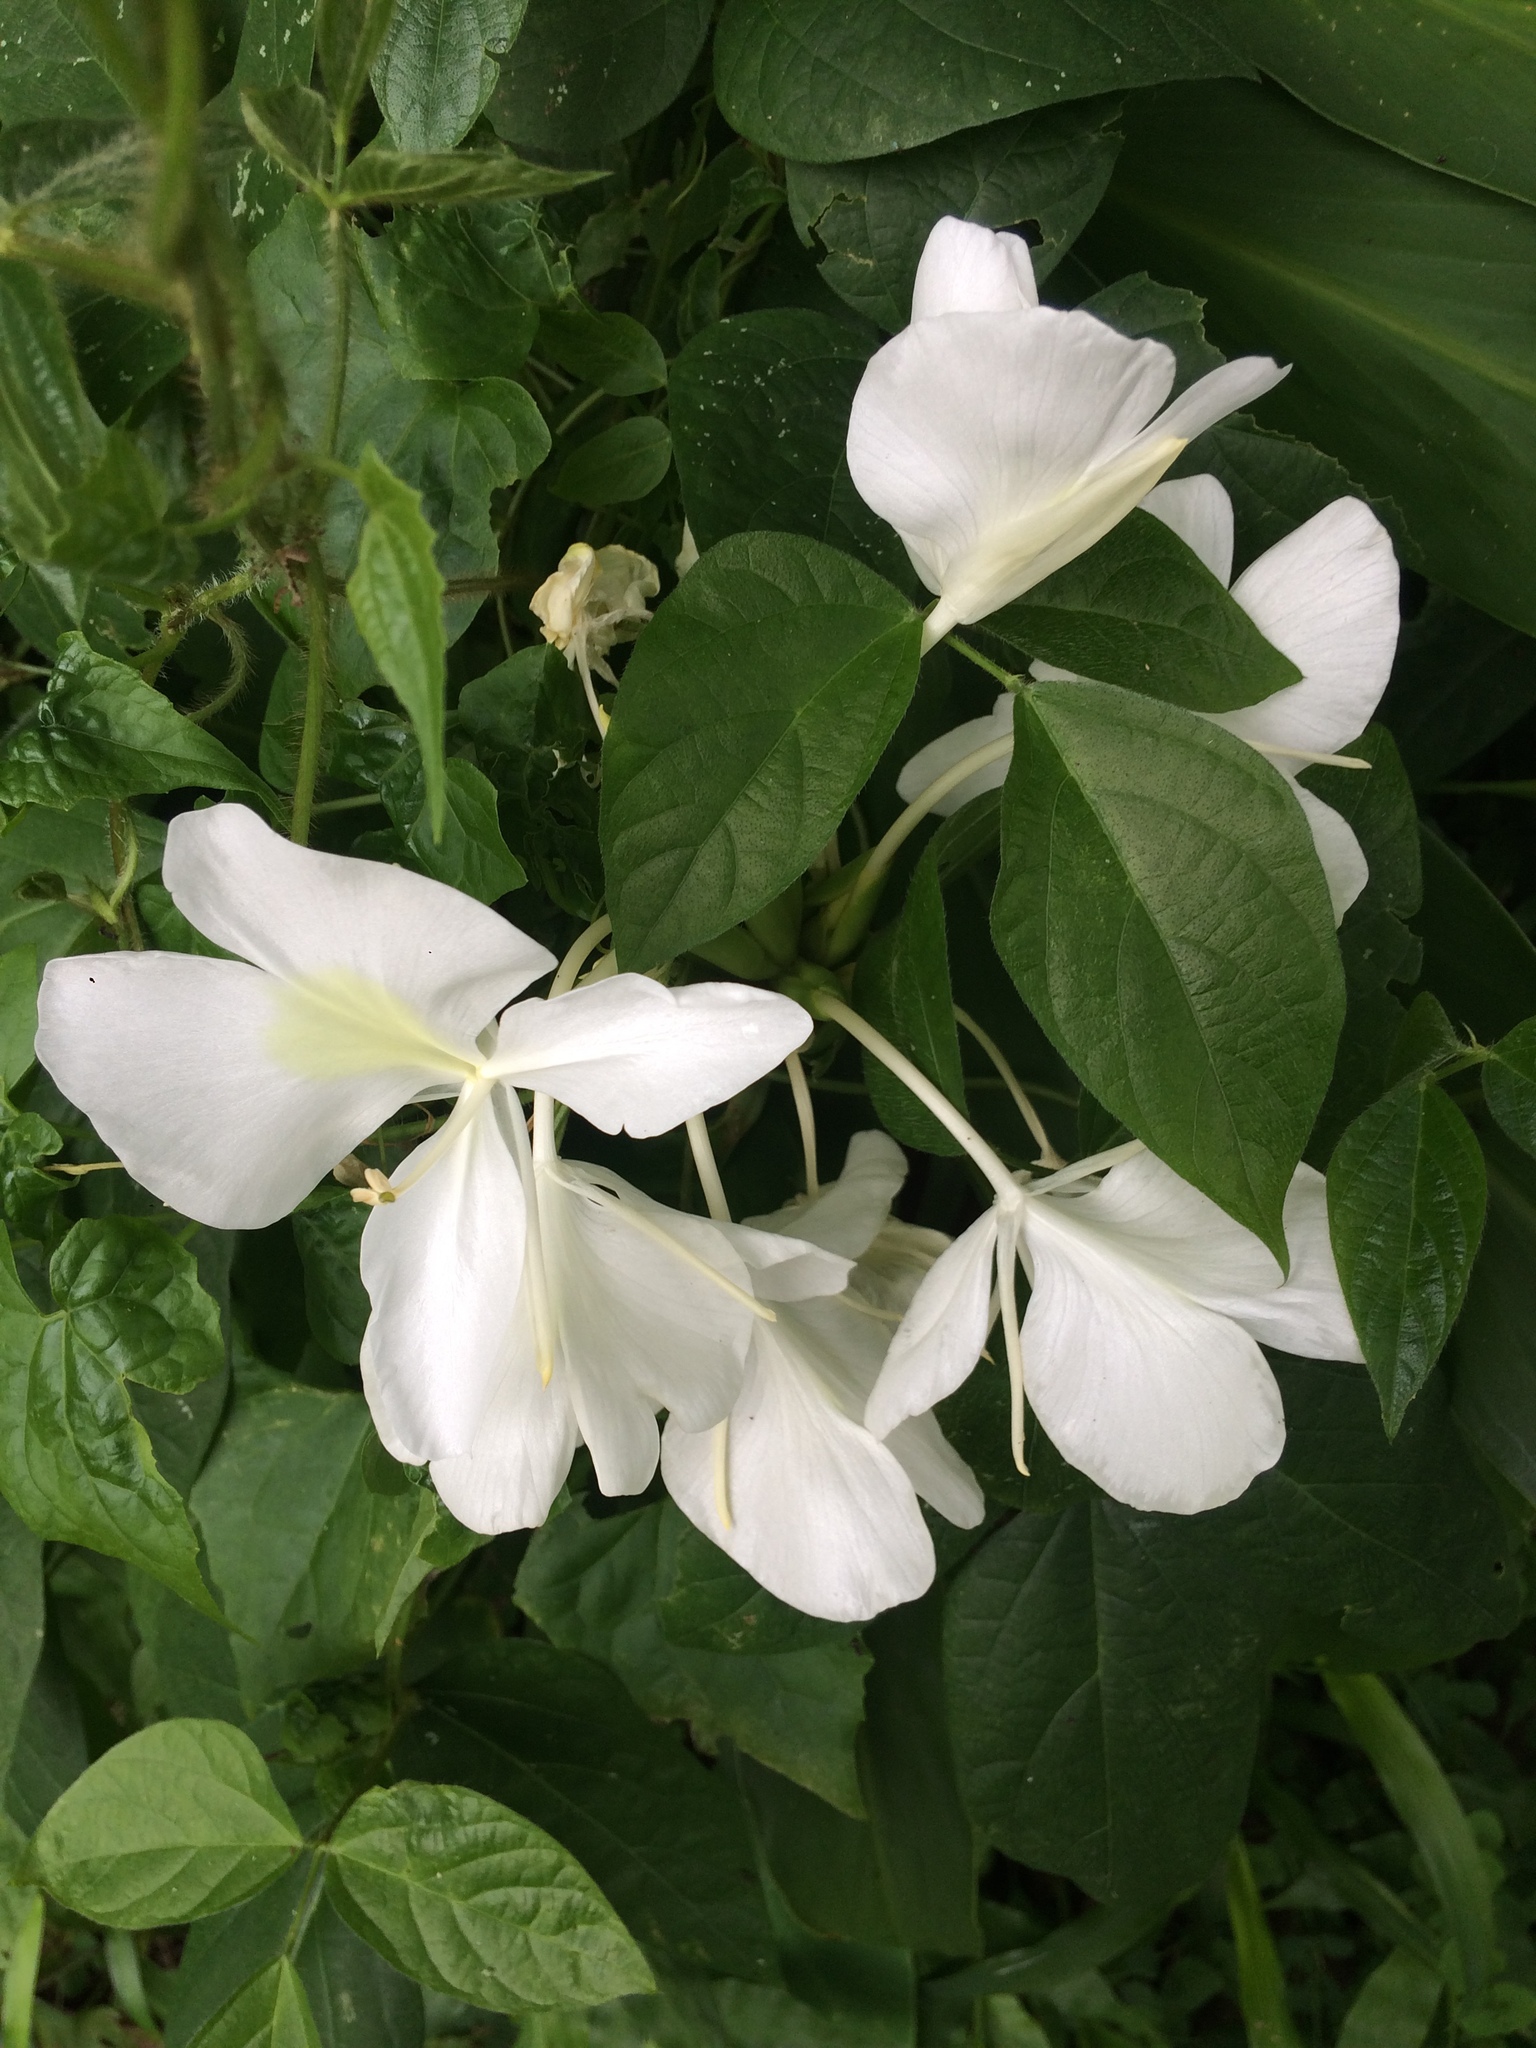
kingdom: Plantae
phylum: Tracheophyta
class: Liliopsida
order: Zingiberales
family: Zingiberaceae
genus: Hedychium
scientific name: Hedychium coronarium
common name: White garland-lily
